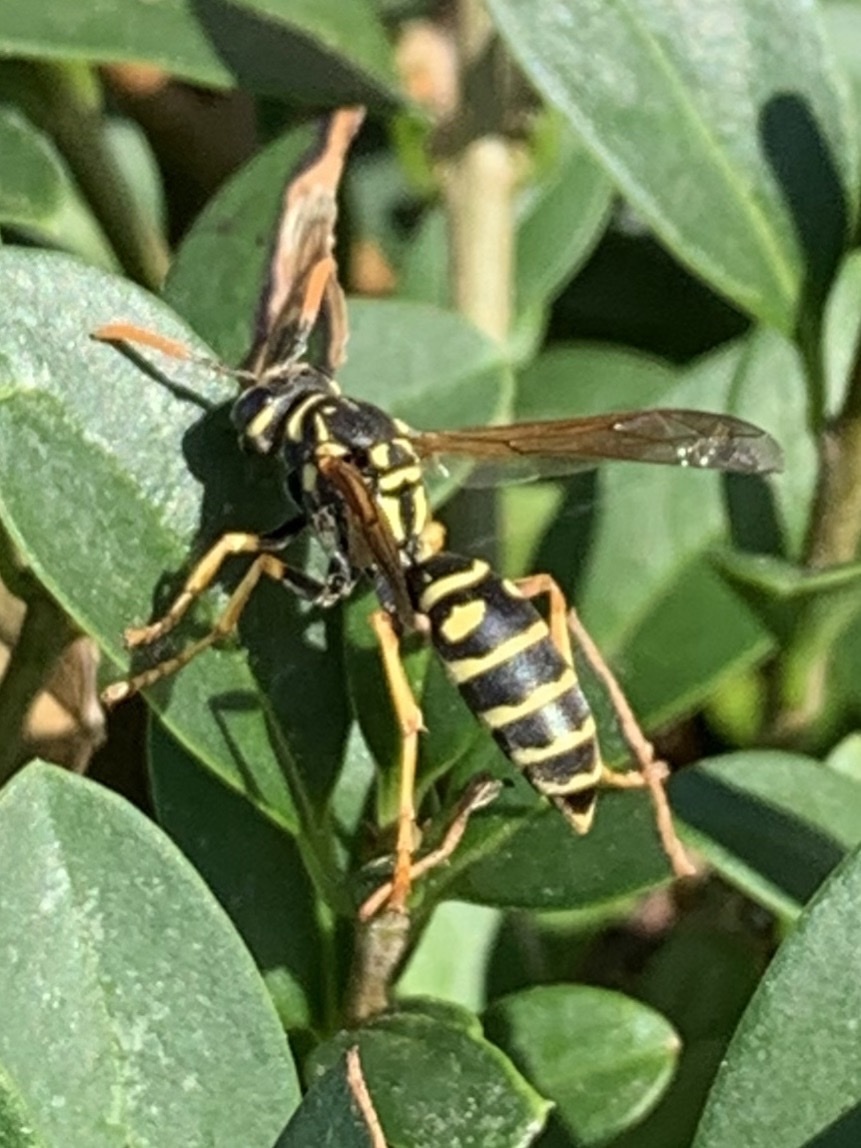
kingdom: Animalia
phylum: Arthropoda
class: Insecta
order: Hymenoptera
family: Eumenidae
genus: Polistes
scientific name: Polistes dominula
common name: Paper wasp
